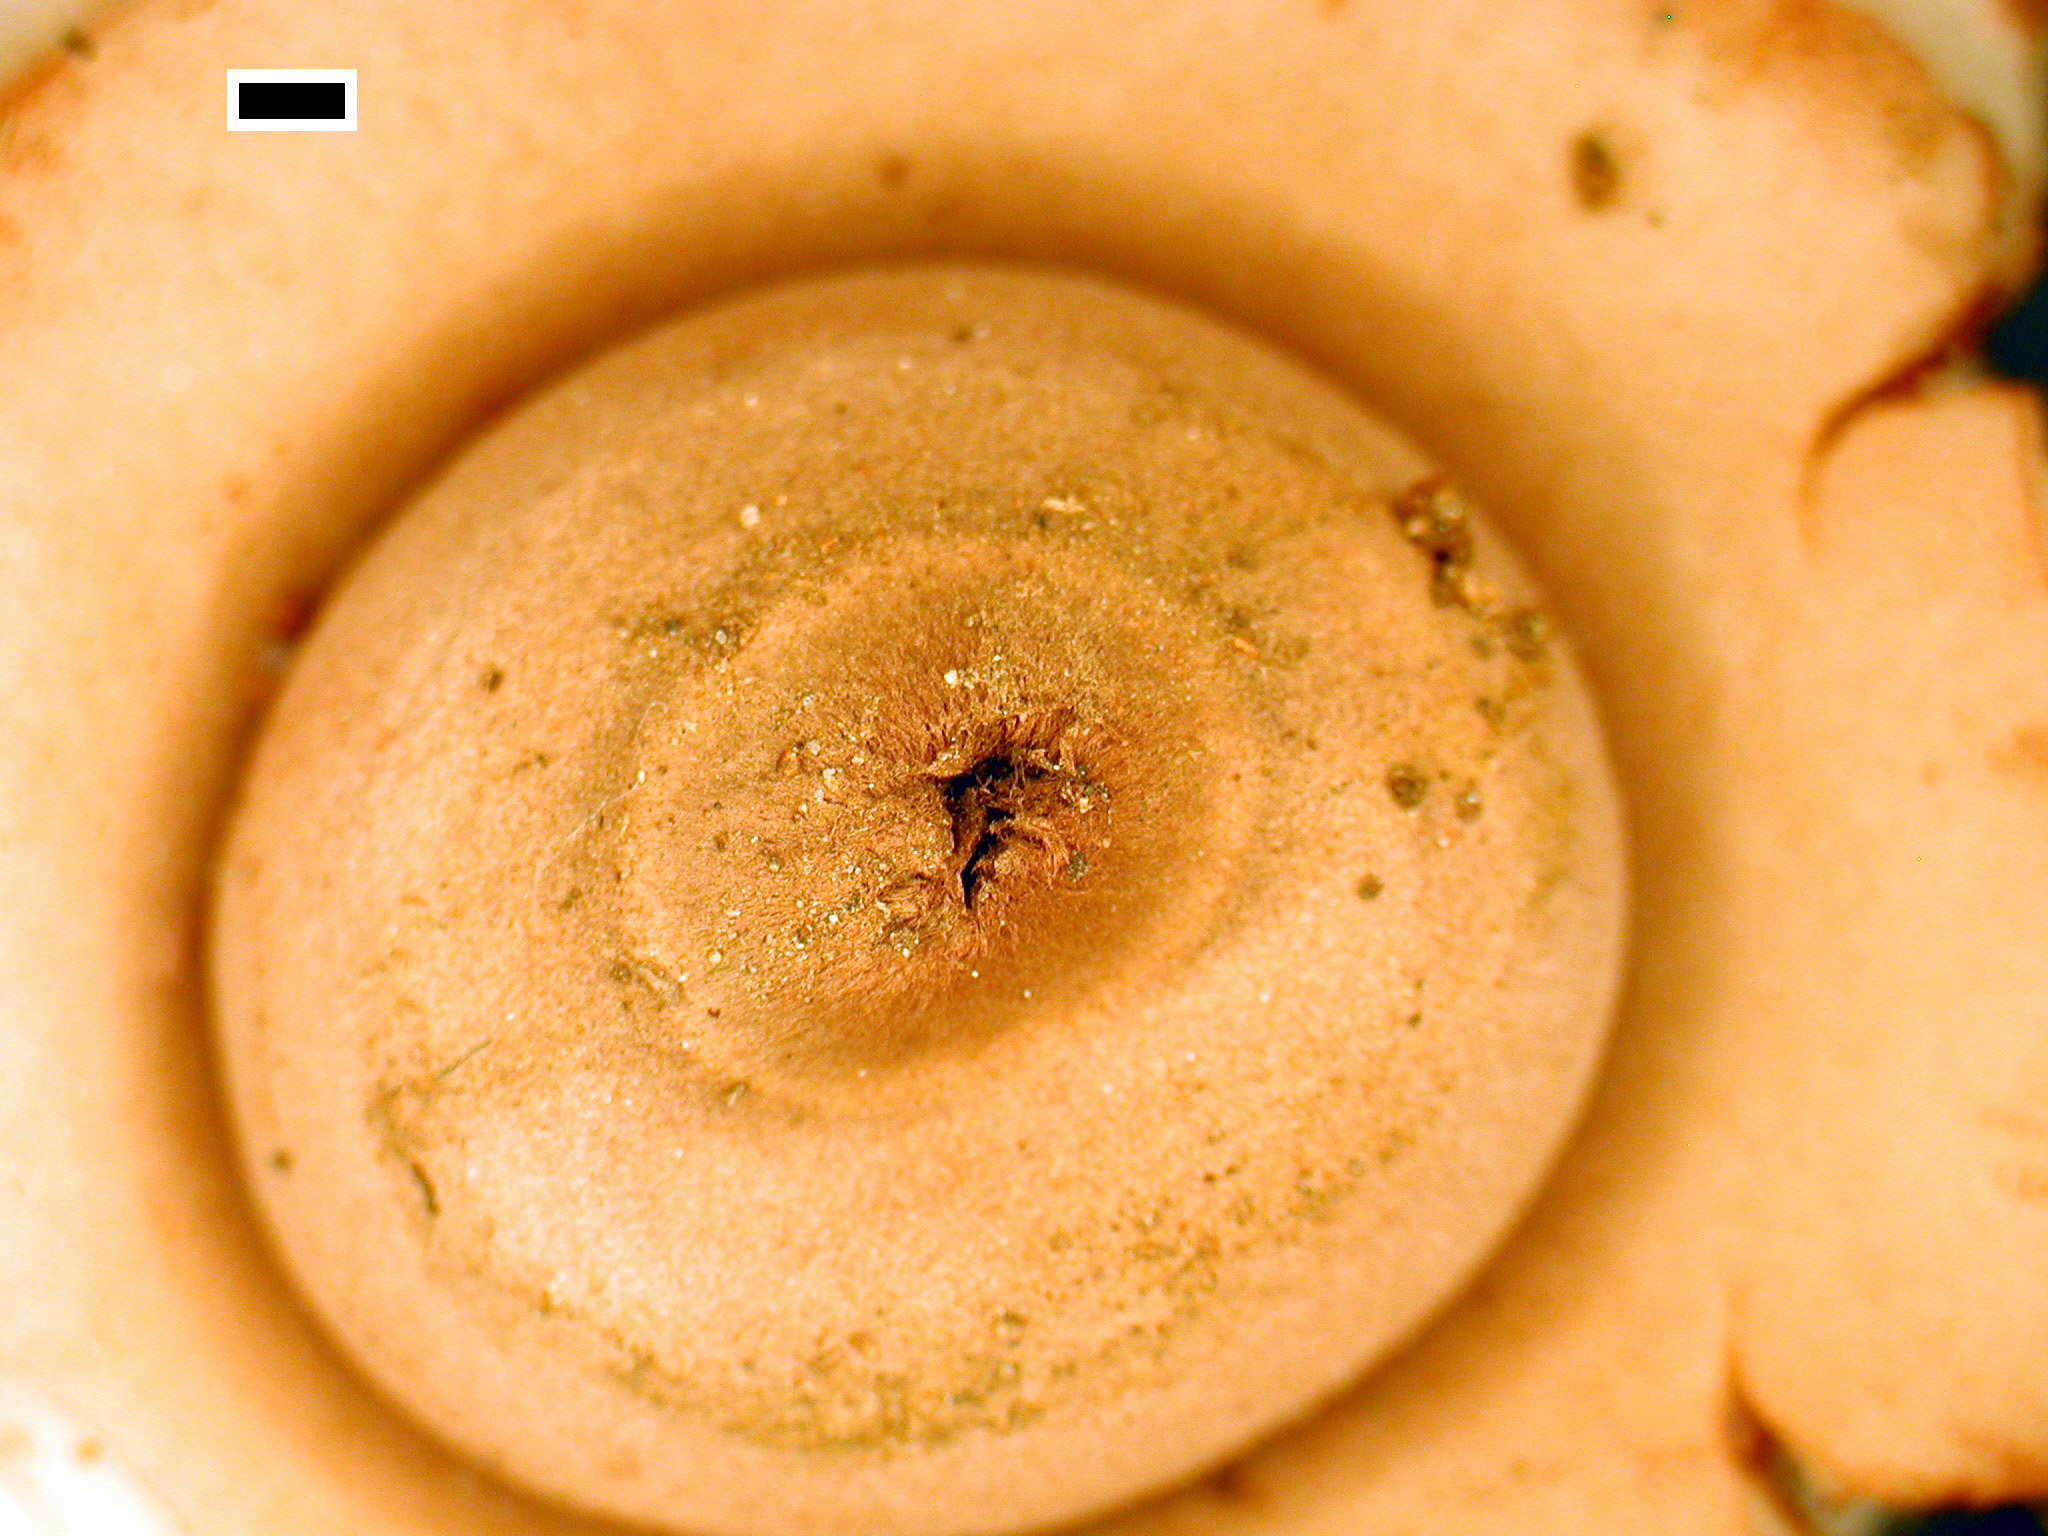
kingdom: Fungi
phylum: Basidiomycota
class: Agaricomycetes
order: Geastrales
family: Geastraceae
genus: Geastrum
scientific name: Geastrum australe
